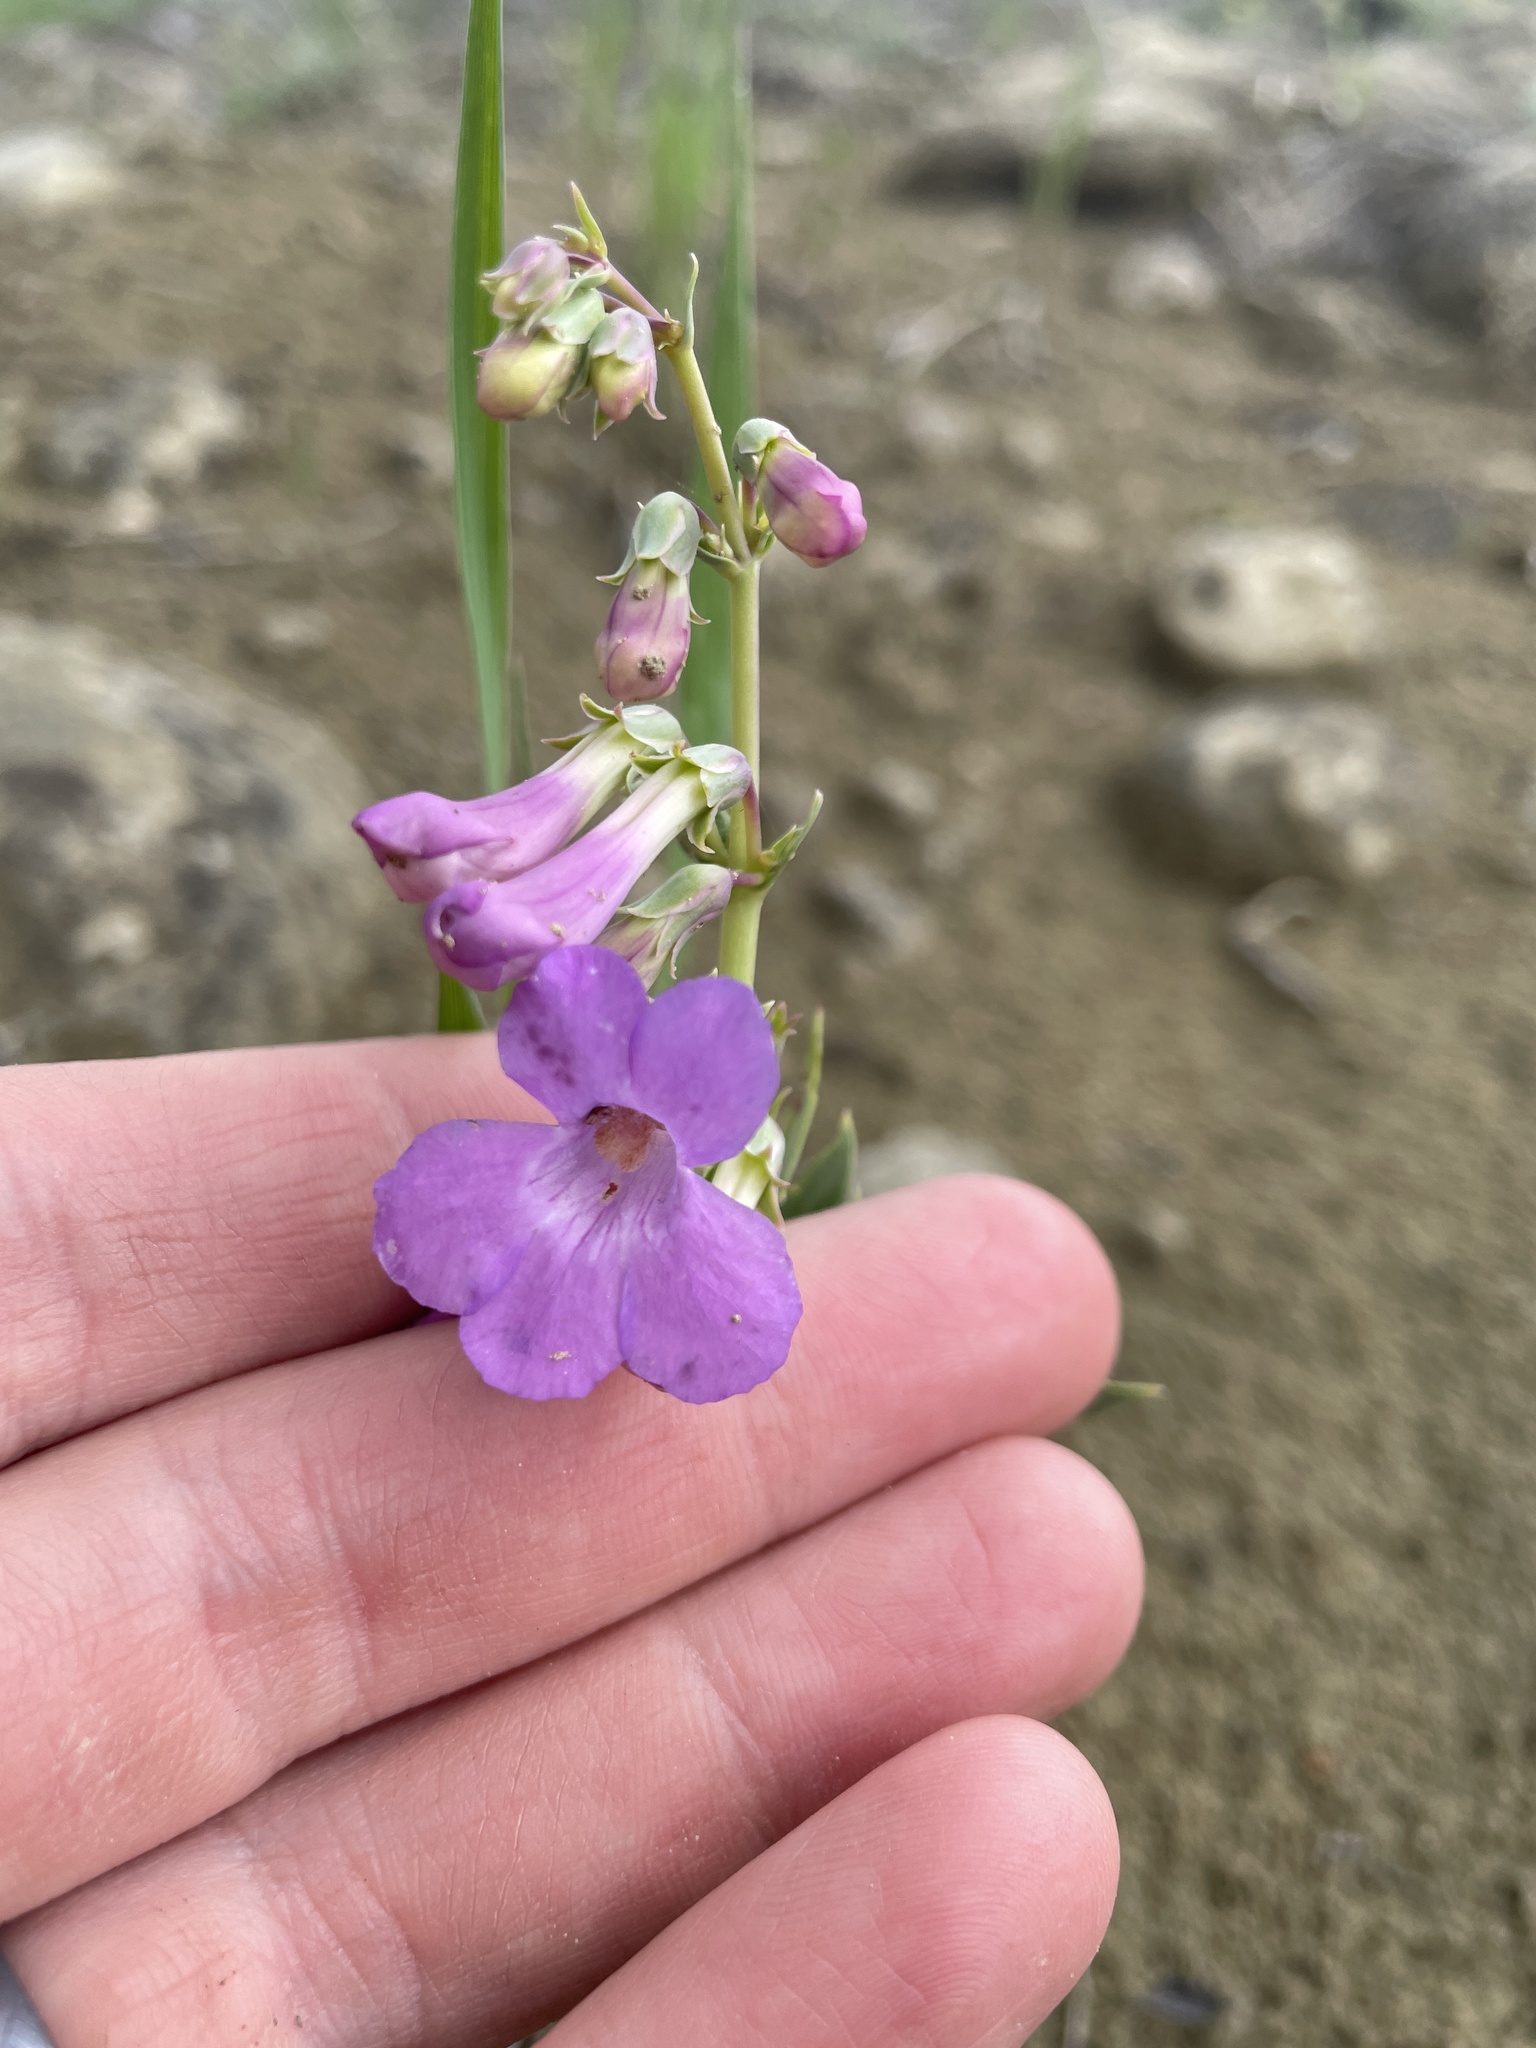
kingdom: Plantae
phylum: Tracheophyta
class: Magnoliopsida
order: Lamiales
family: Plantaginaceae
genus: Penstemon
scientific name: Penstemon secundiflorus
